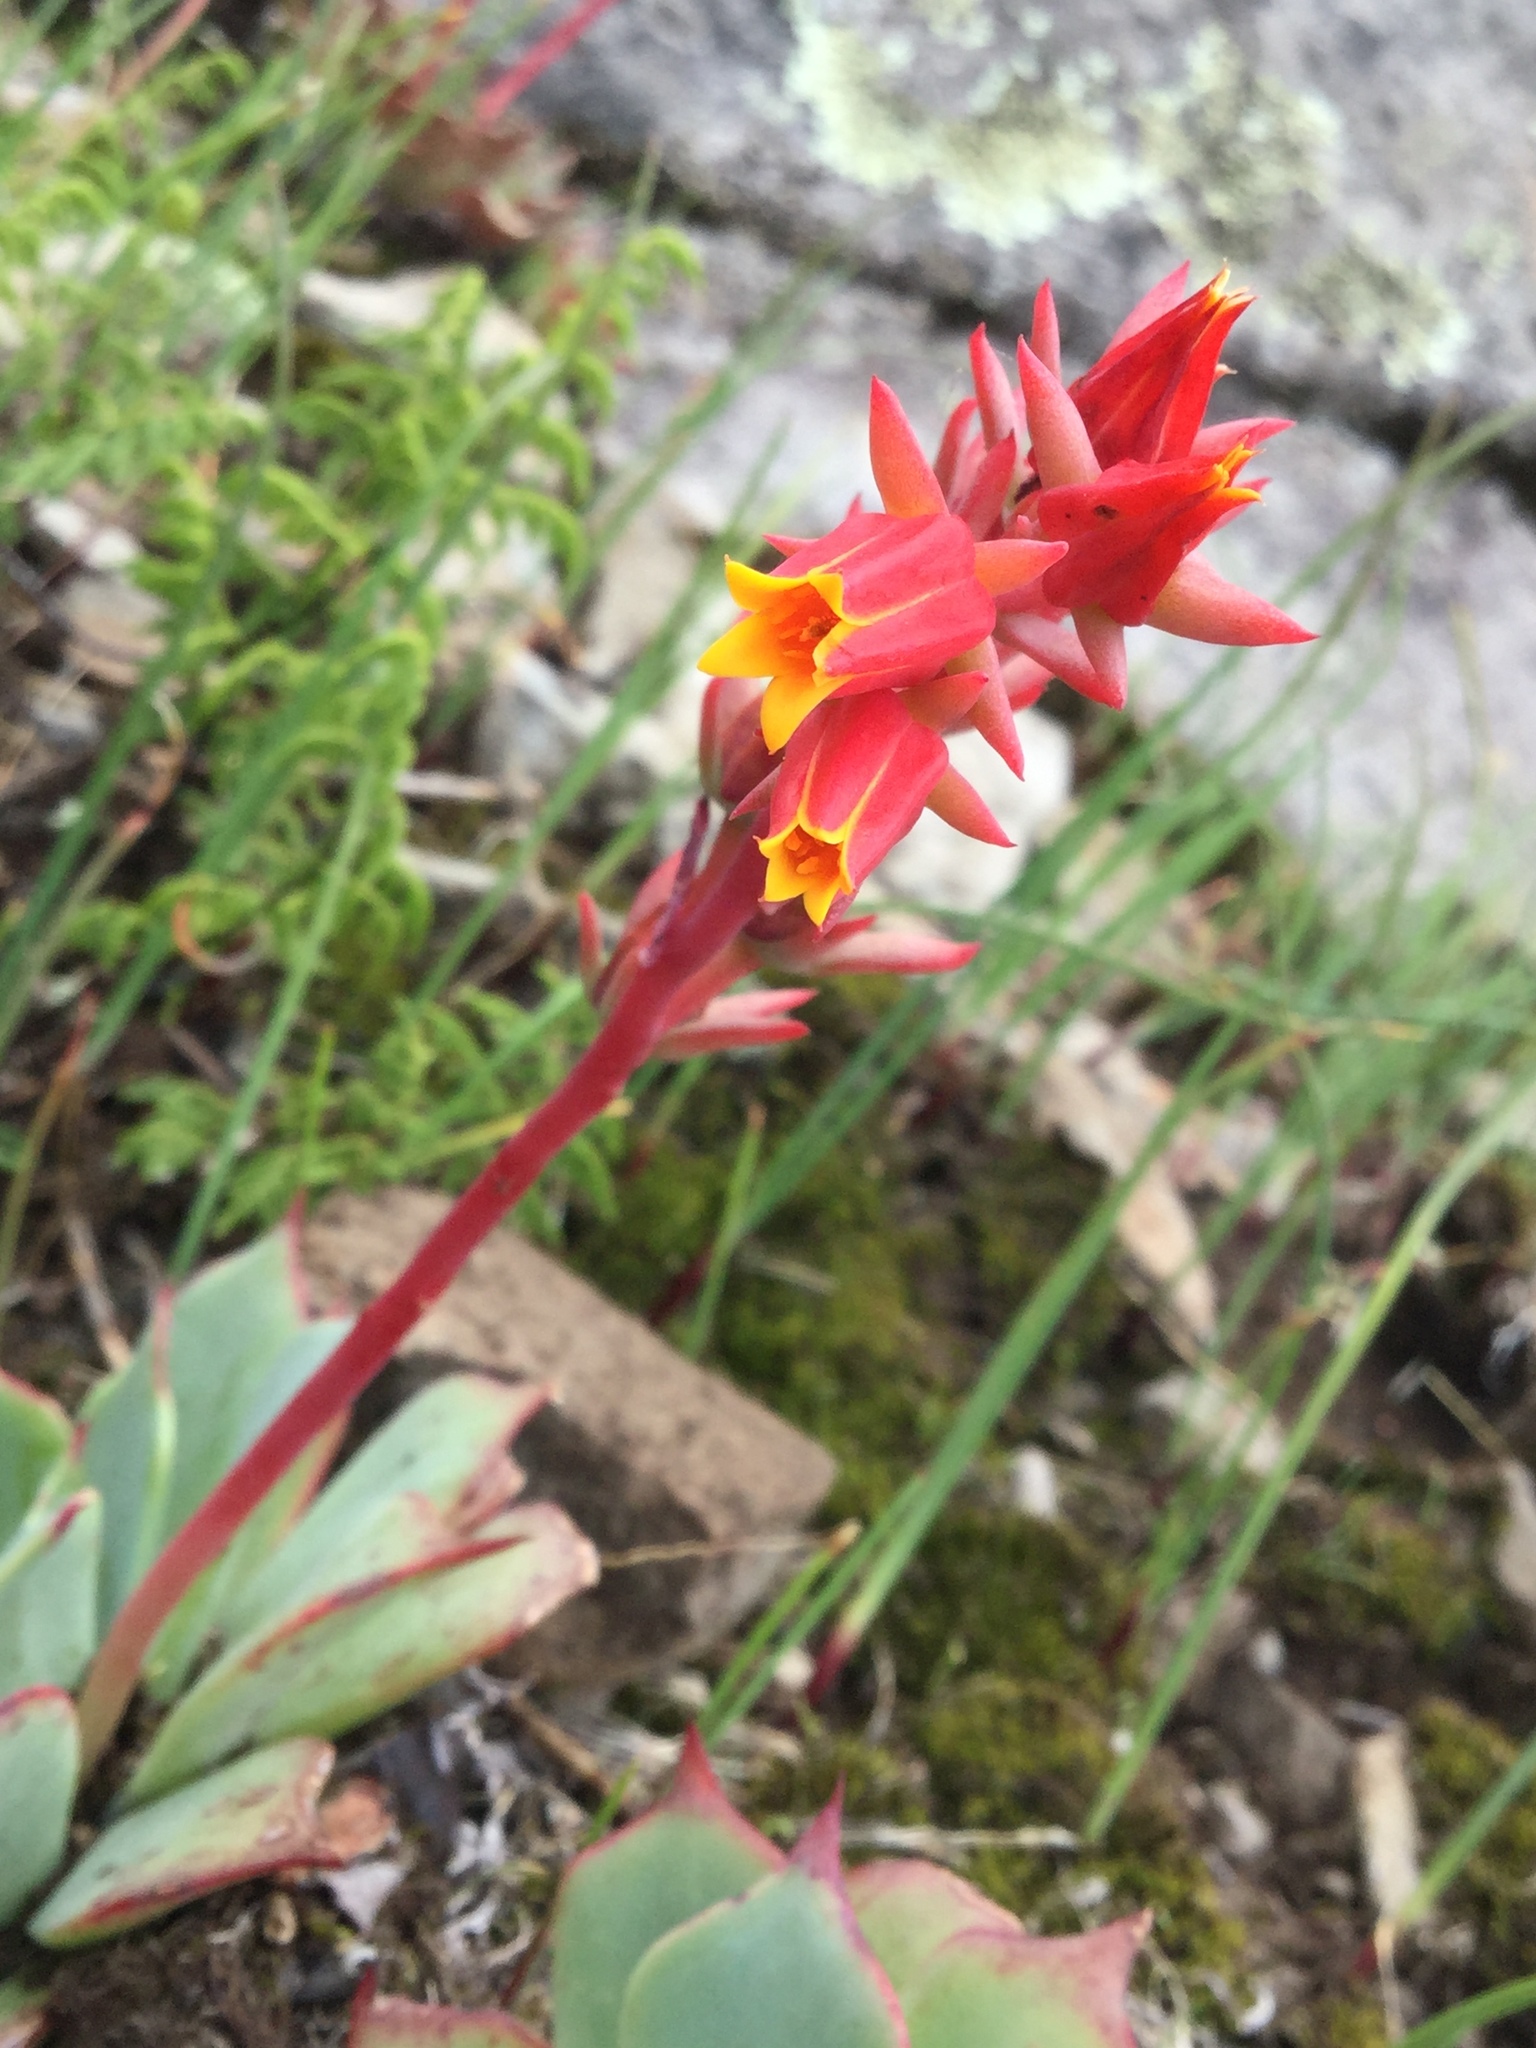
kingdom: Plantae
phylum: Tracheophyta
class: Magnoliopsida
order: Saxifragales
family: Crassulaceae
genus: Echeveria
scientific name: Echeveria secunda
